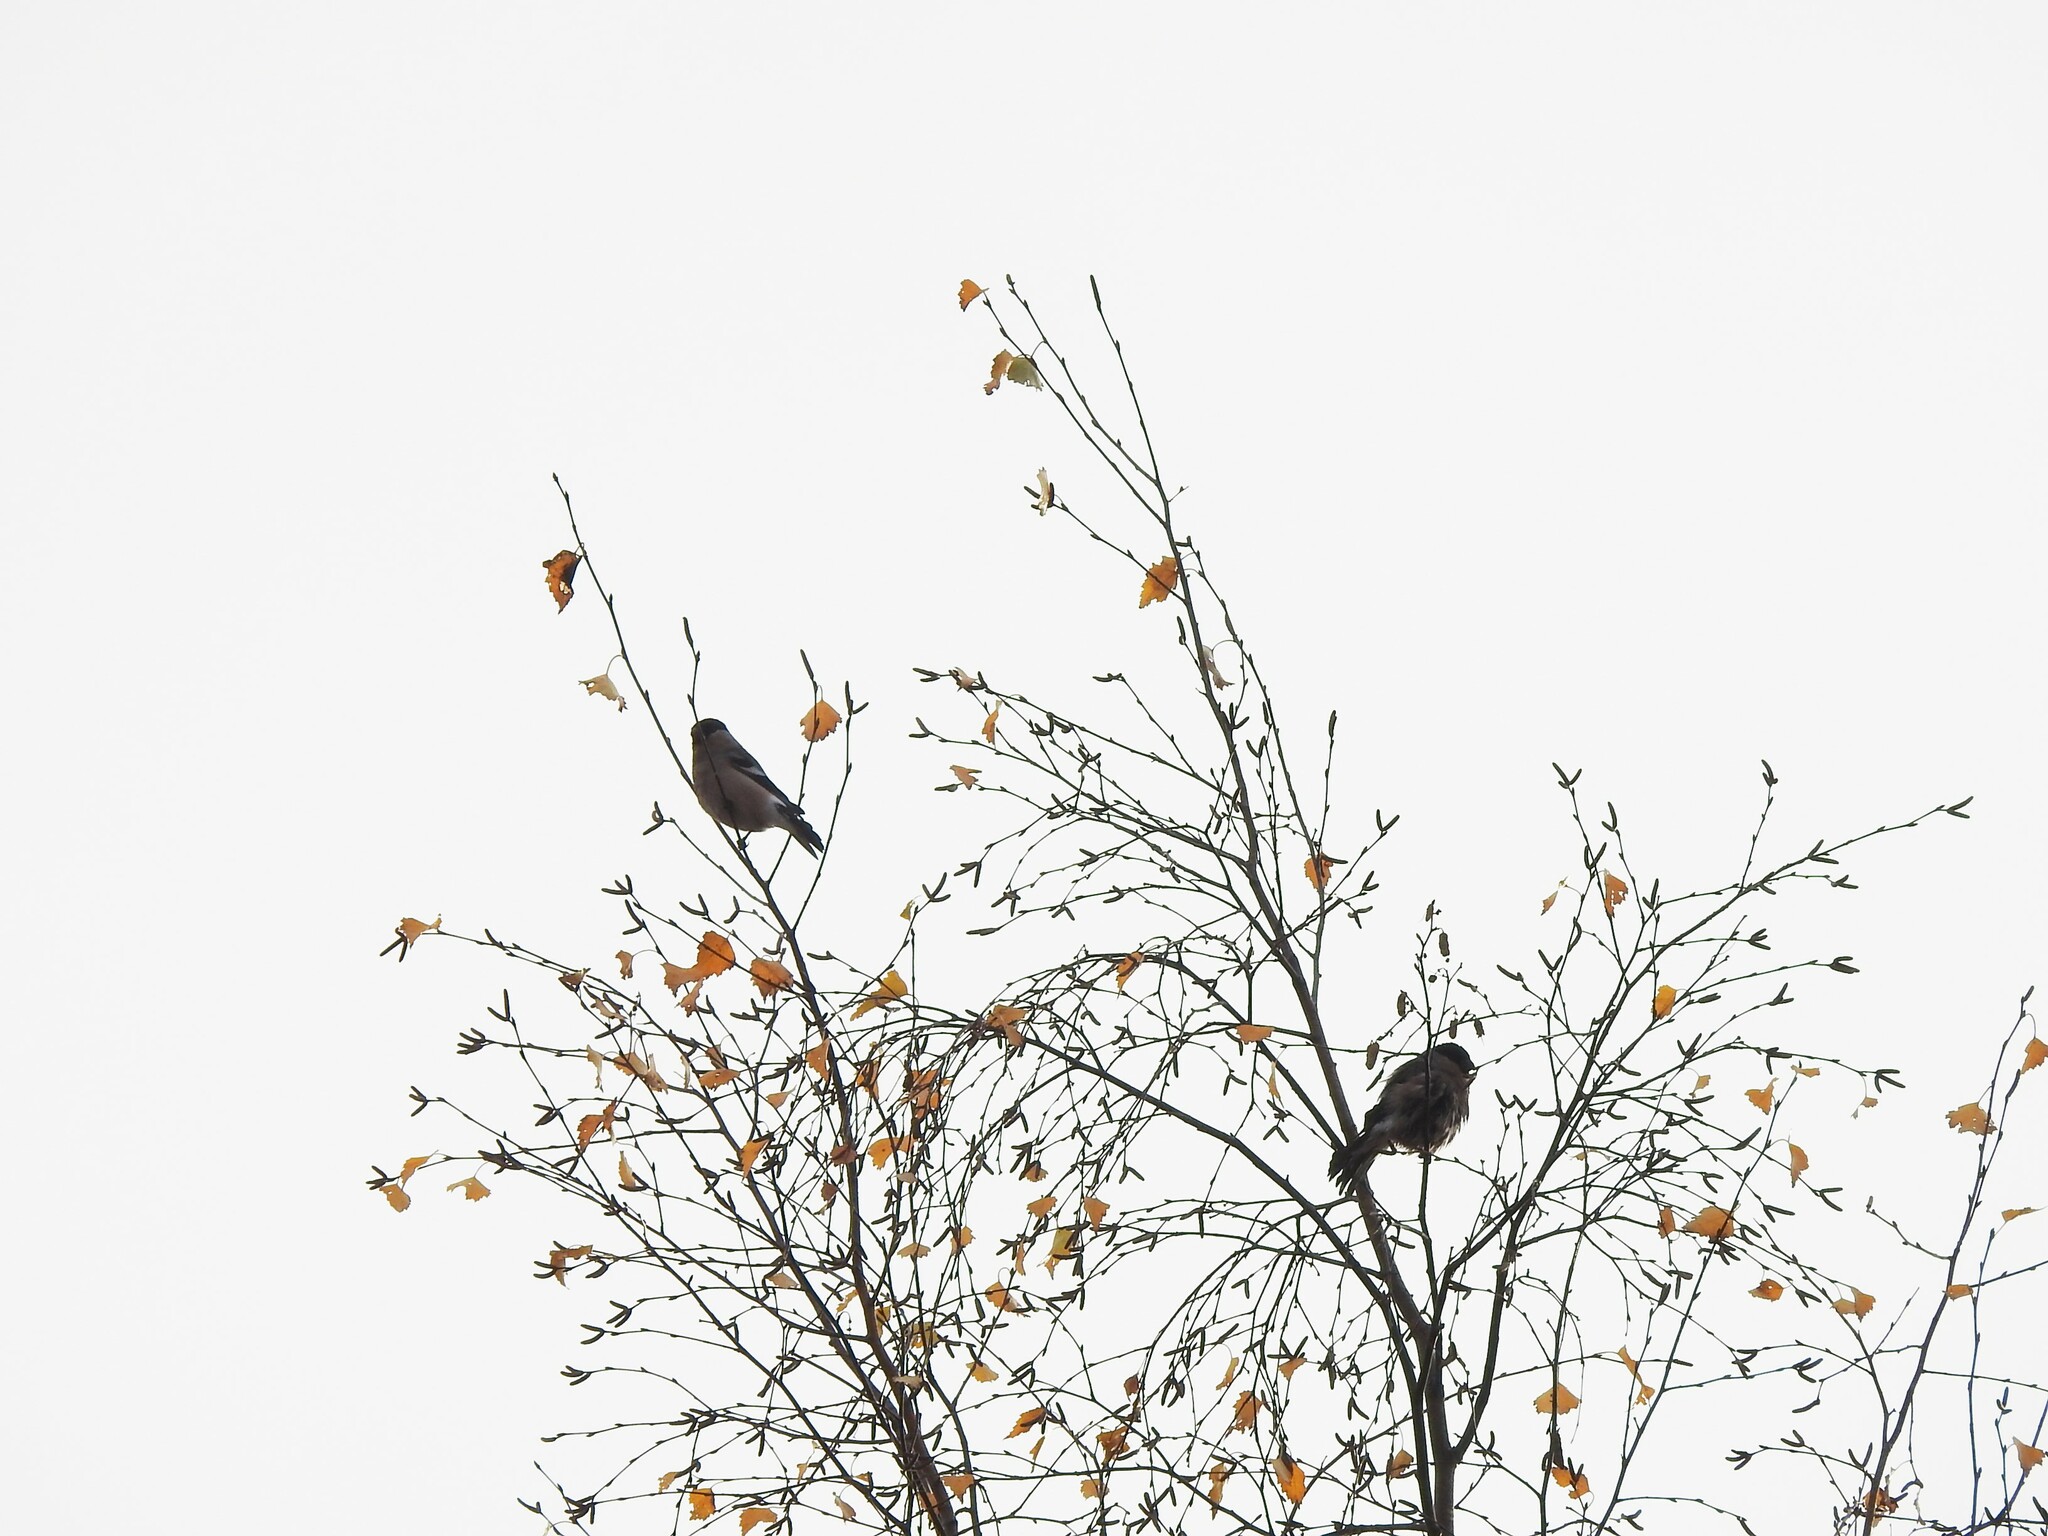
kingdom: Animalia
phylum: Chordata
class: Aves
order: Passeriformes
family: Fringillidae
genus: Pyrrhula
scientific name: Pyrrhula pyrrhula
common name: Eurasian bullfinch
